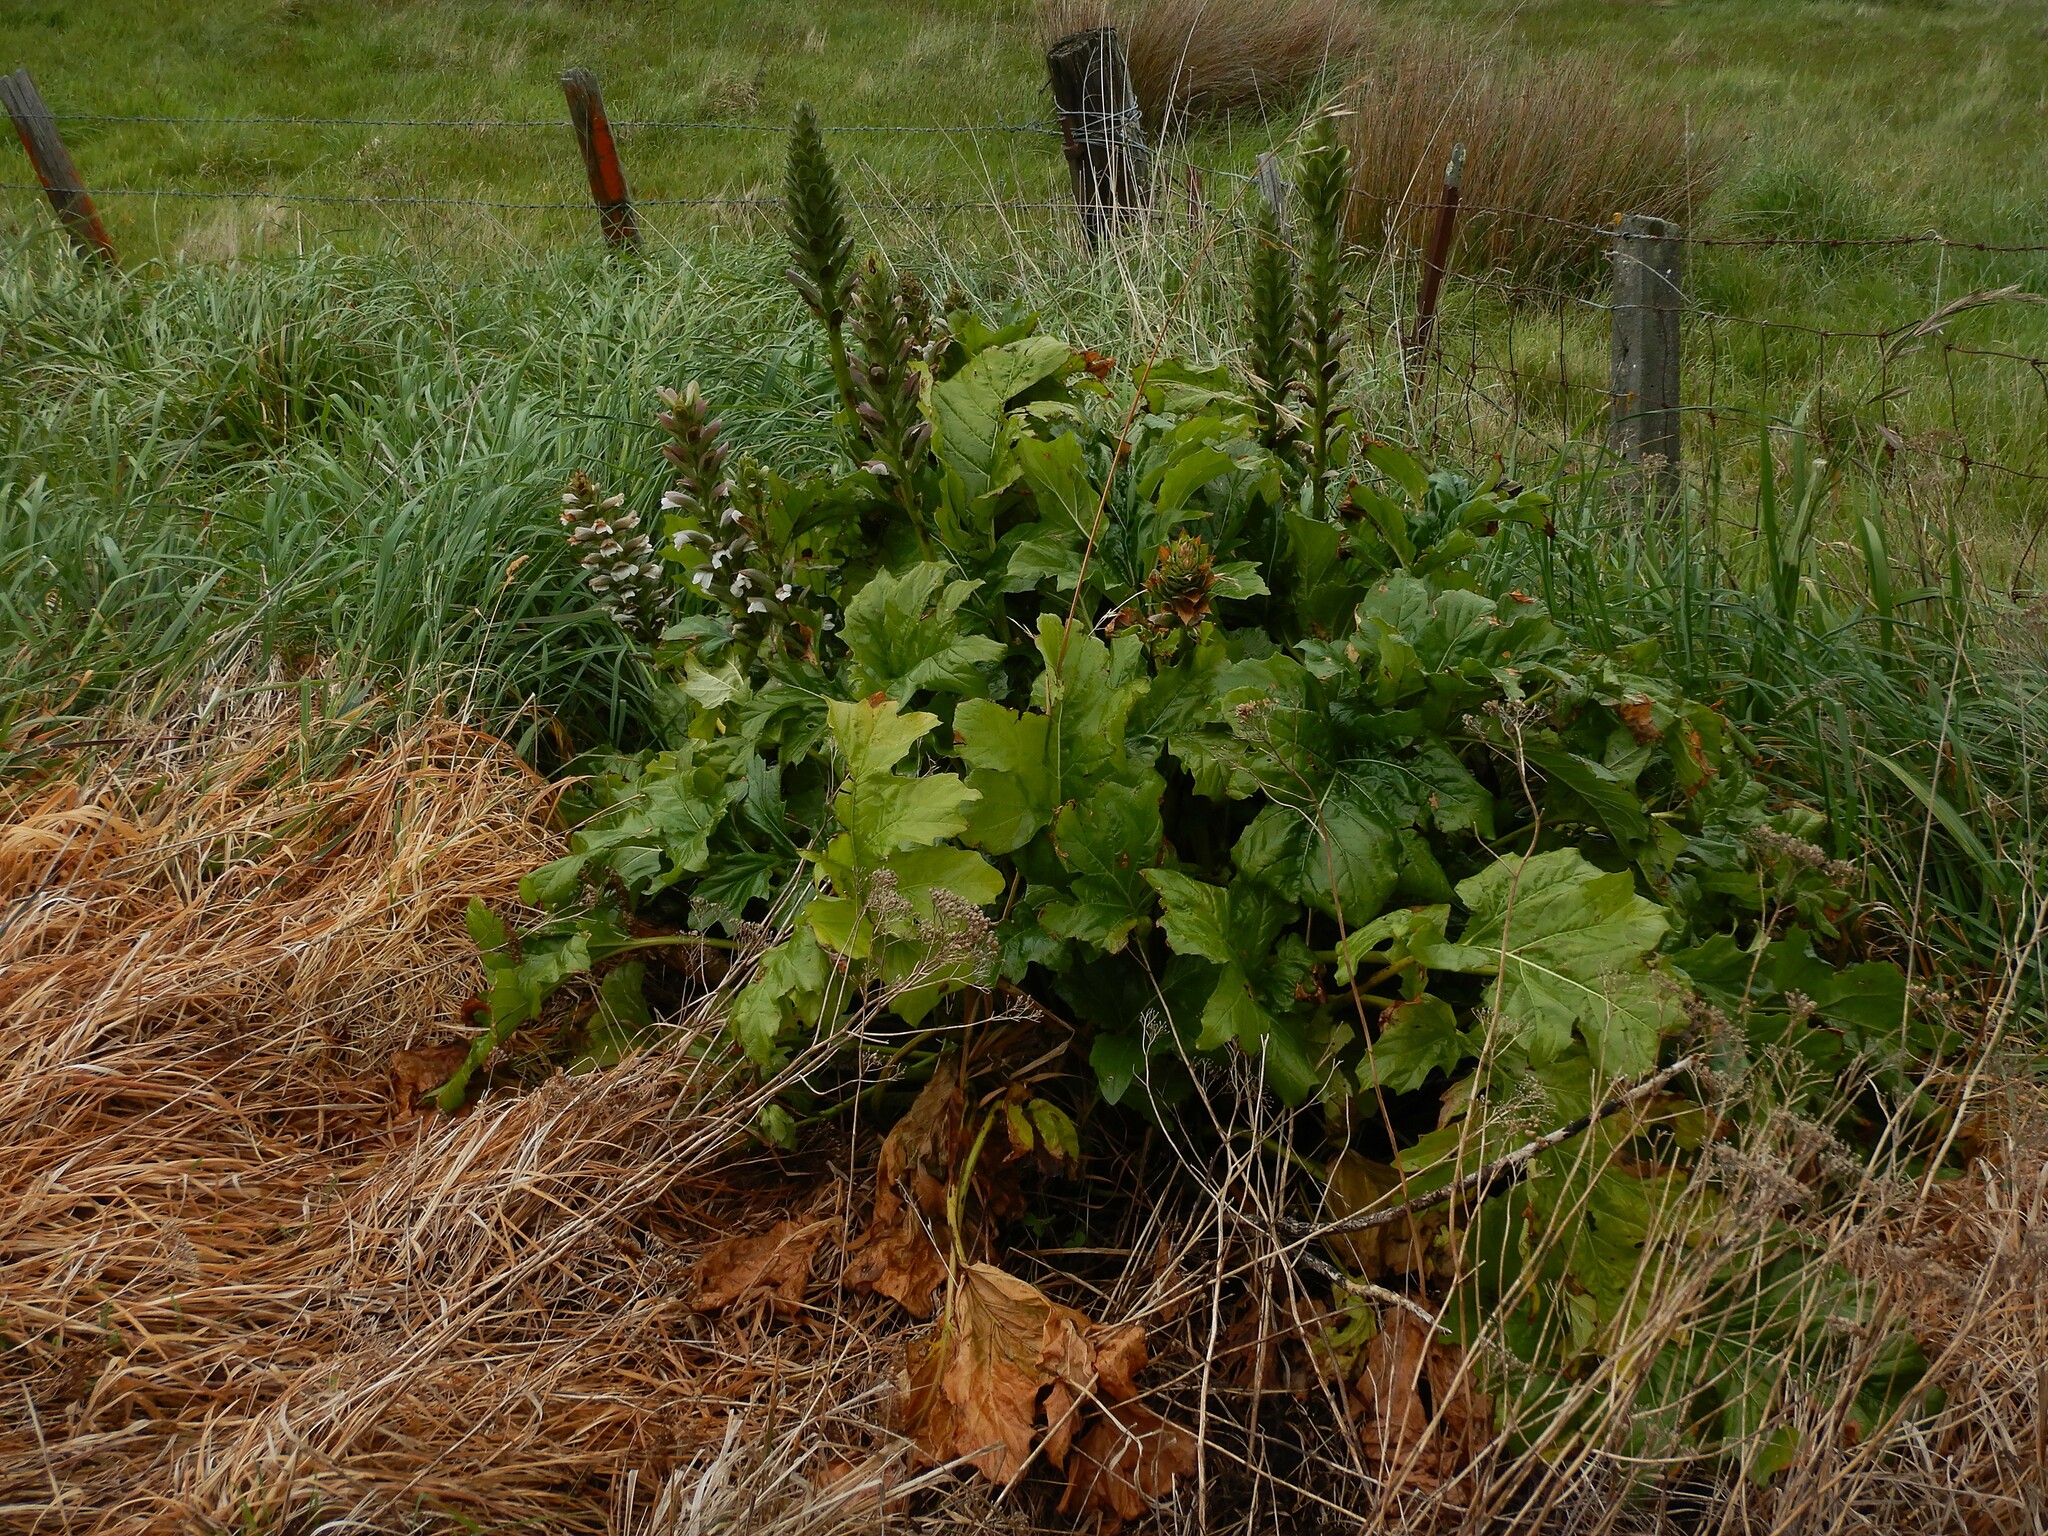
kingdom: Plantae
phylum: Tracheophyta
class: Magnoliopsida
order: Lamiales
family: Acanthaceae
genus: Acanthus
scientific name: Acanthus mollis
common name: Bear's-breech
